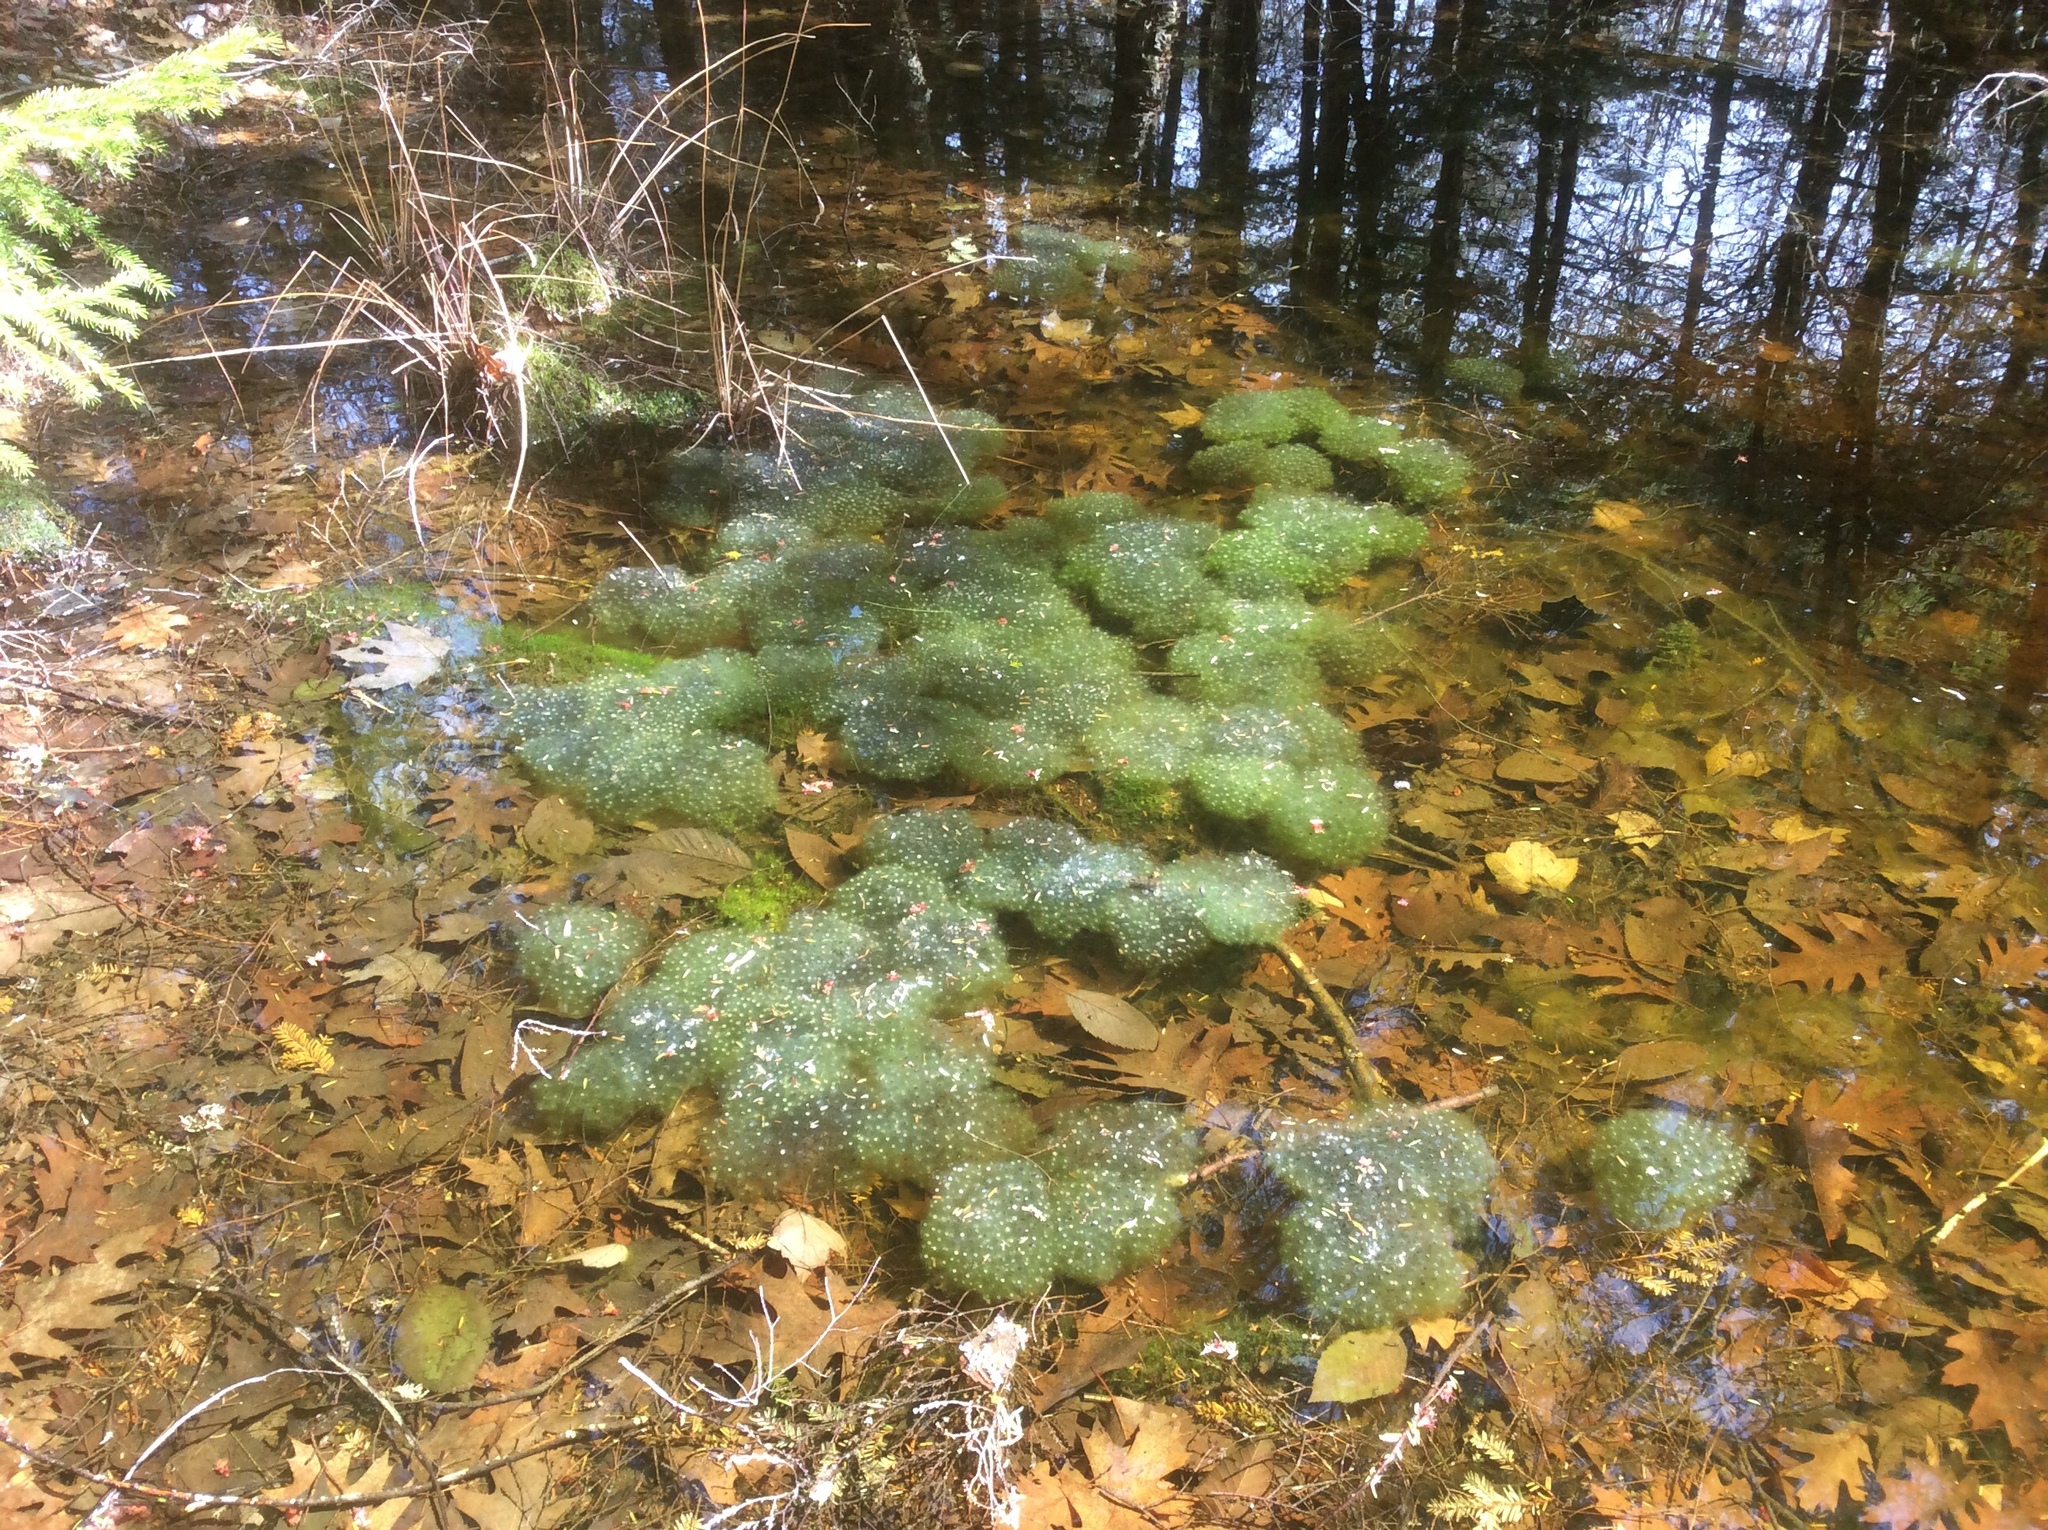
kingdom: Animalia
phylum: Chordata
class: Amphibia
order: Anura
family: Ranidae
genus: Lithobates
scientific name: Lithobates sylvaticus
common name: Wood frog
